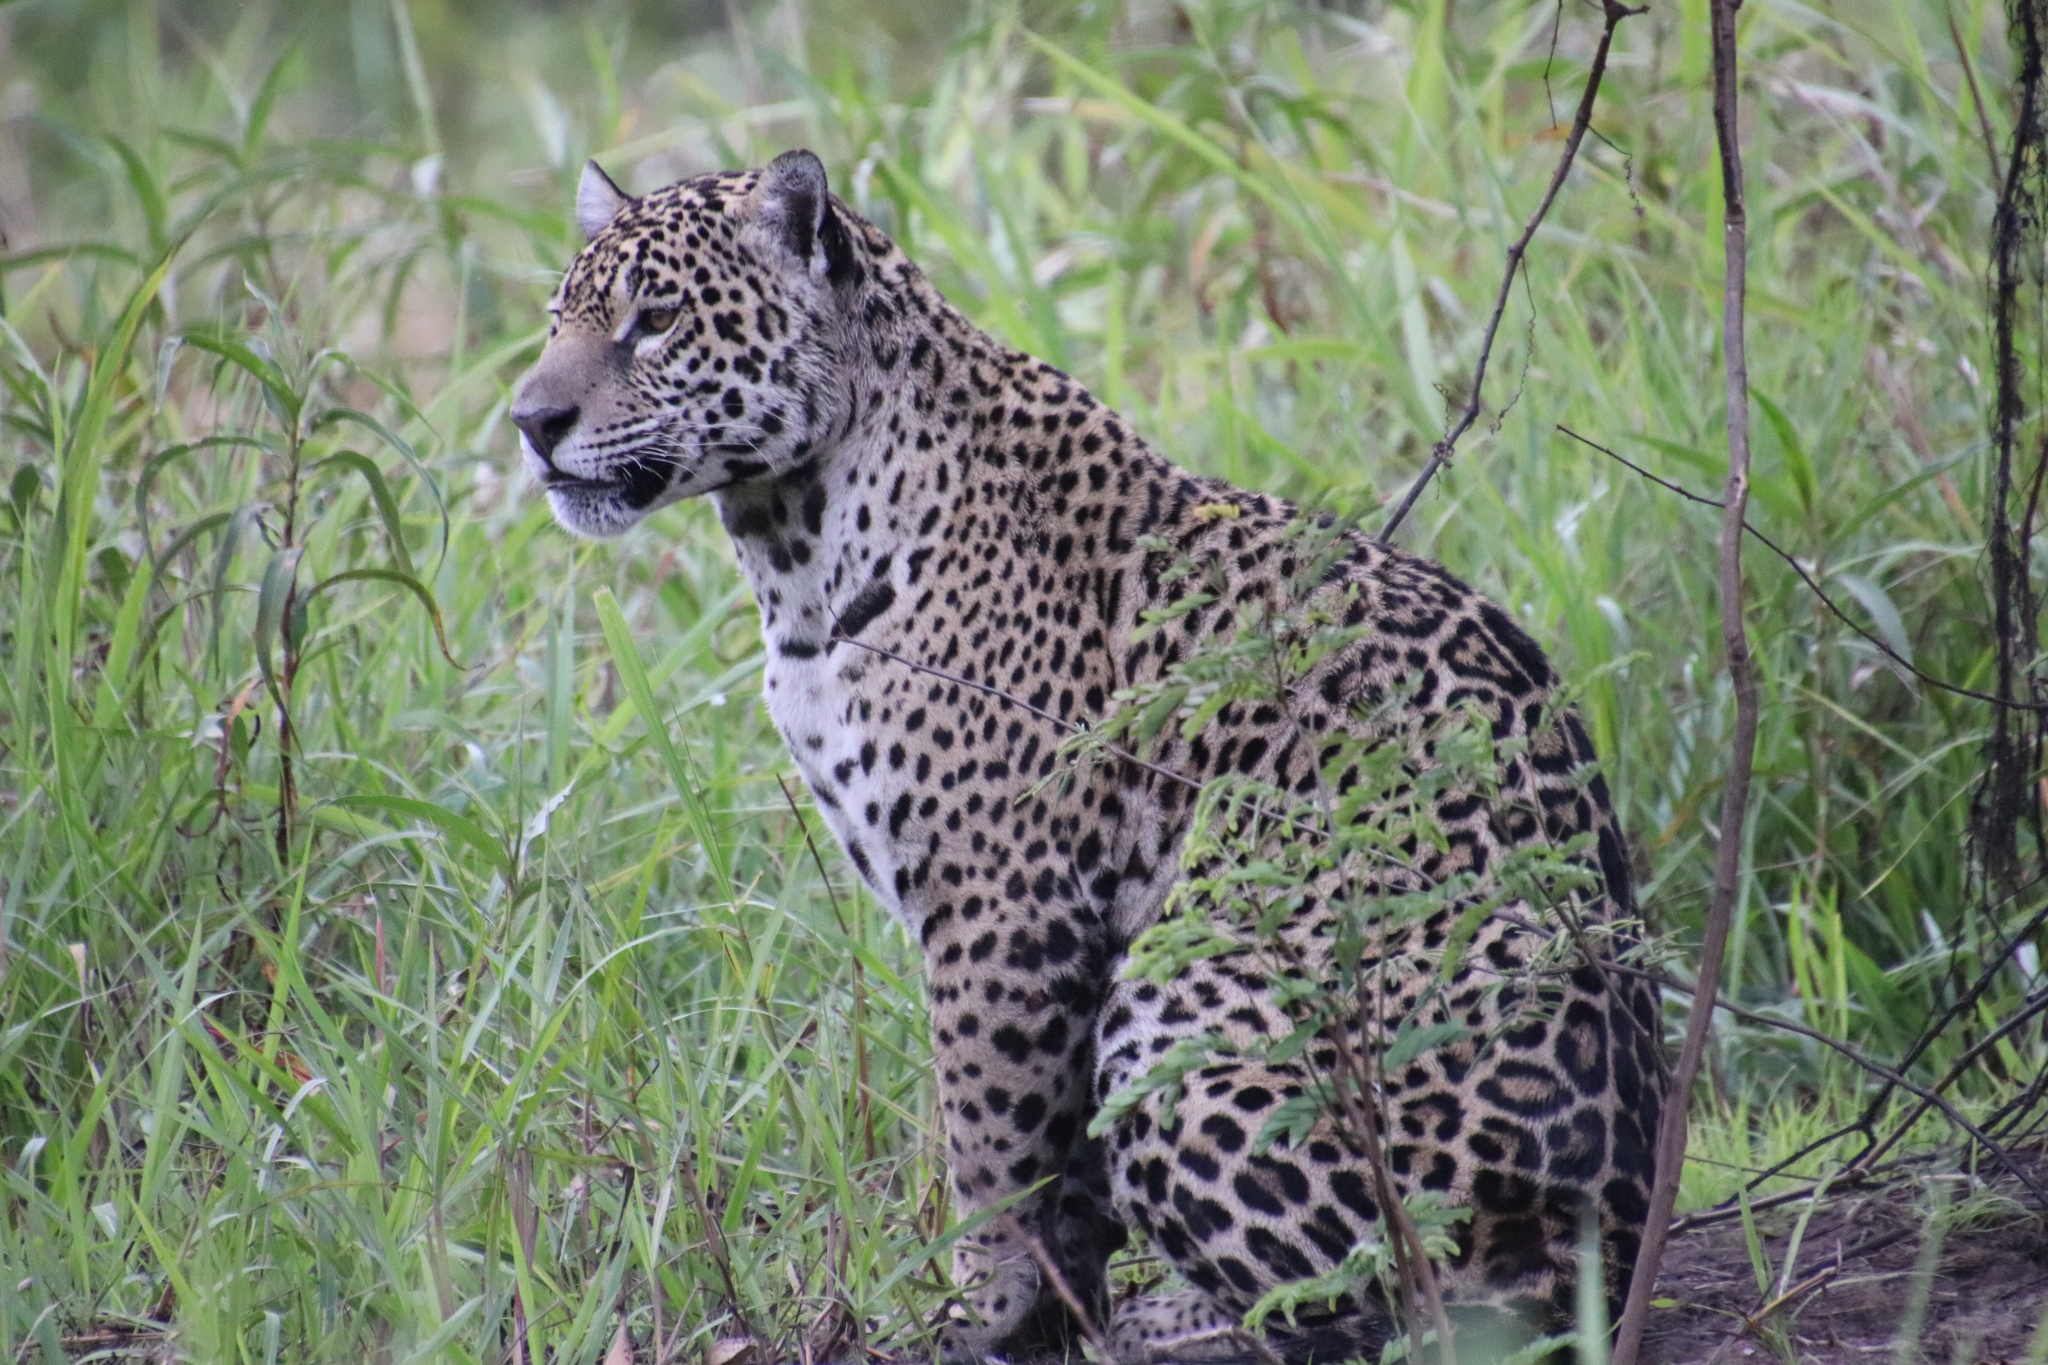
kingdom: Animalia
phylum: Chordata
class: Mammalia
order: Carnivora
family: Felidae
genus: Panthera
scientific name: Panthera onca
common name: Jaguar
